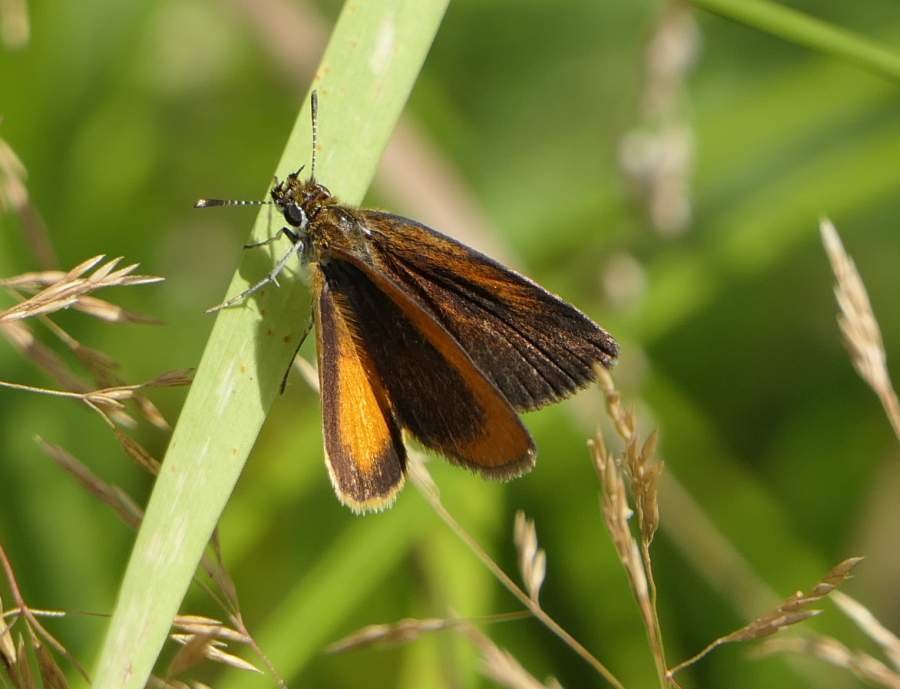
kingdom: Animalia
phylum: Arthropoda
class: Insecta
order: Lepidoptera
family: Hesperiidae
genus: Ancyloxypha
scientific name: Ancyloxypha numitor
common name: Least skipper
